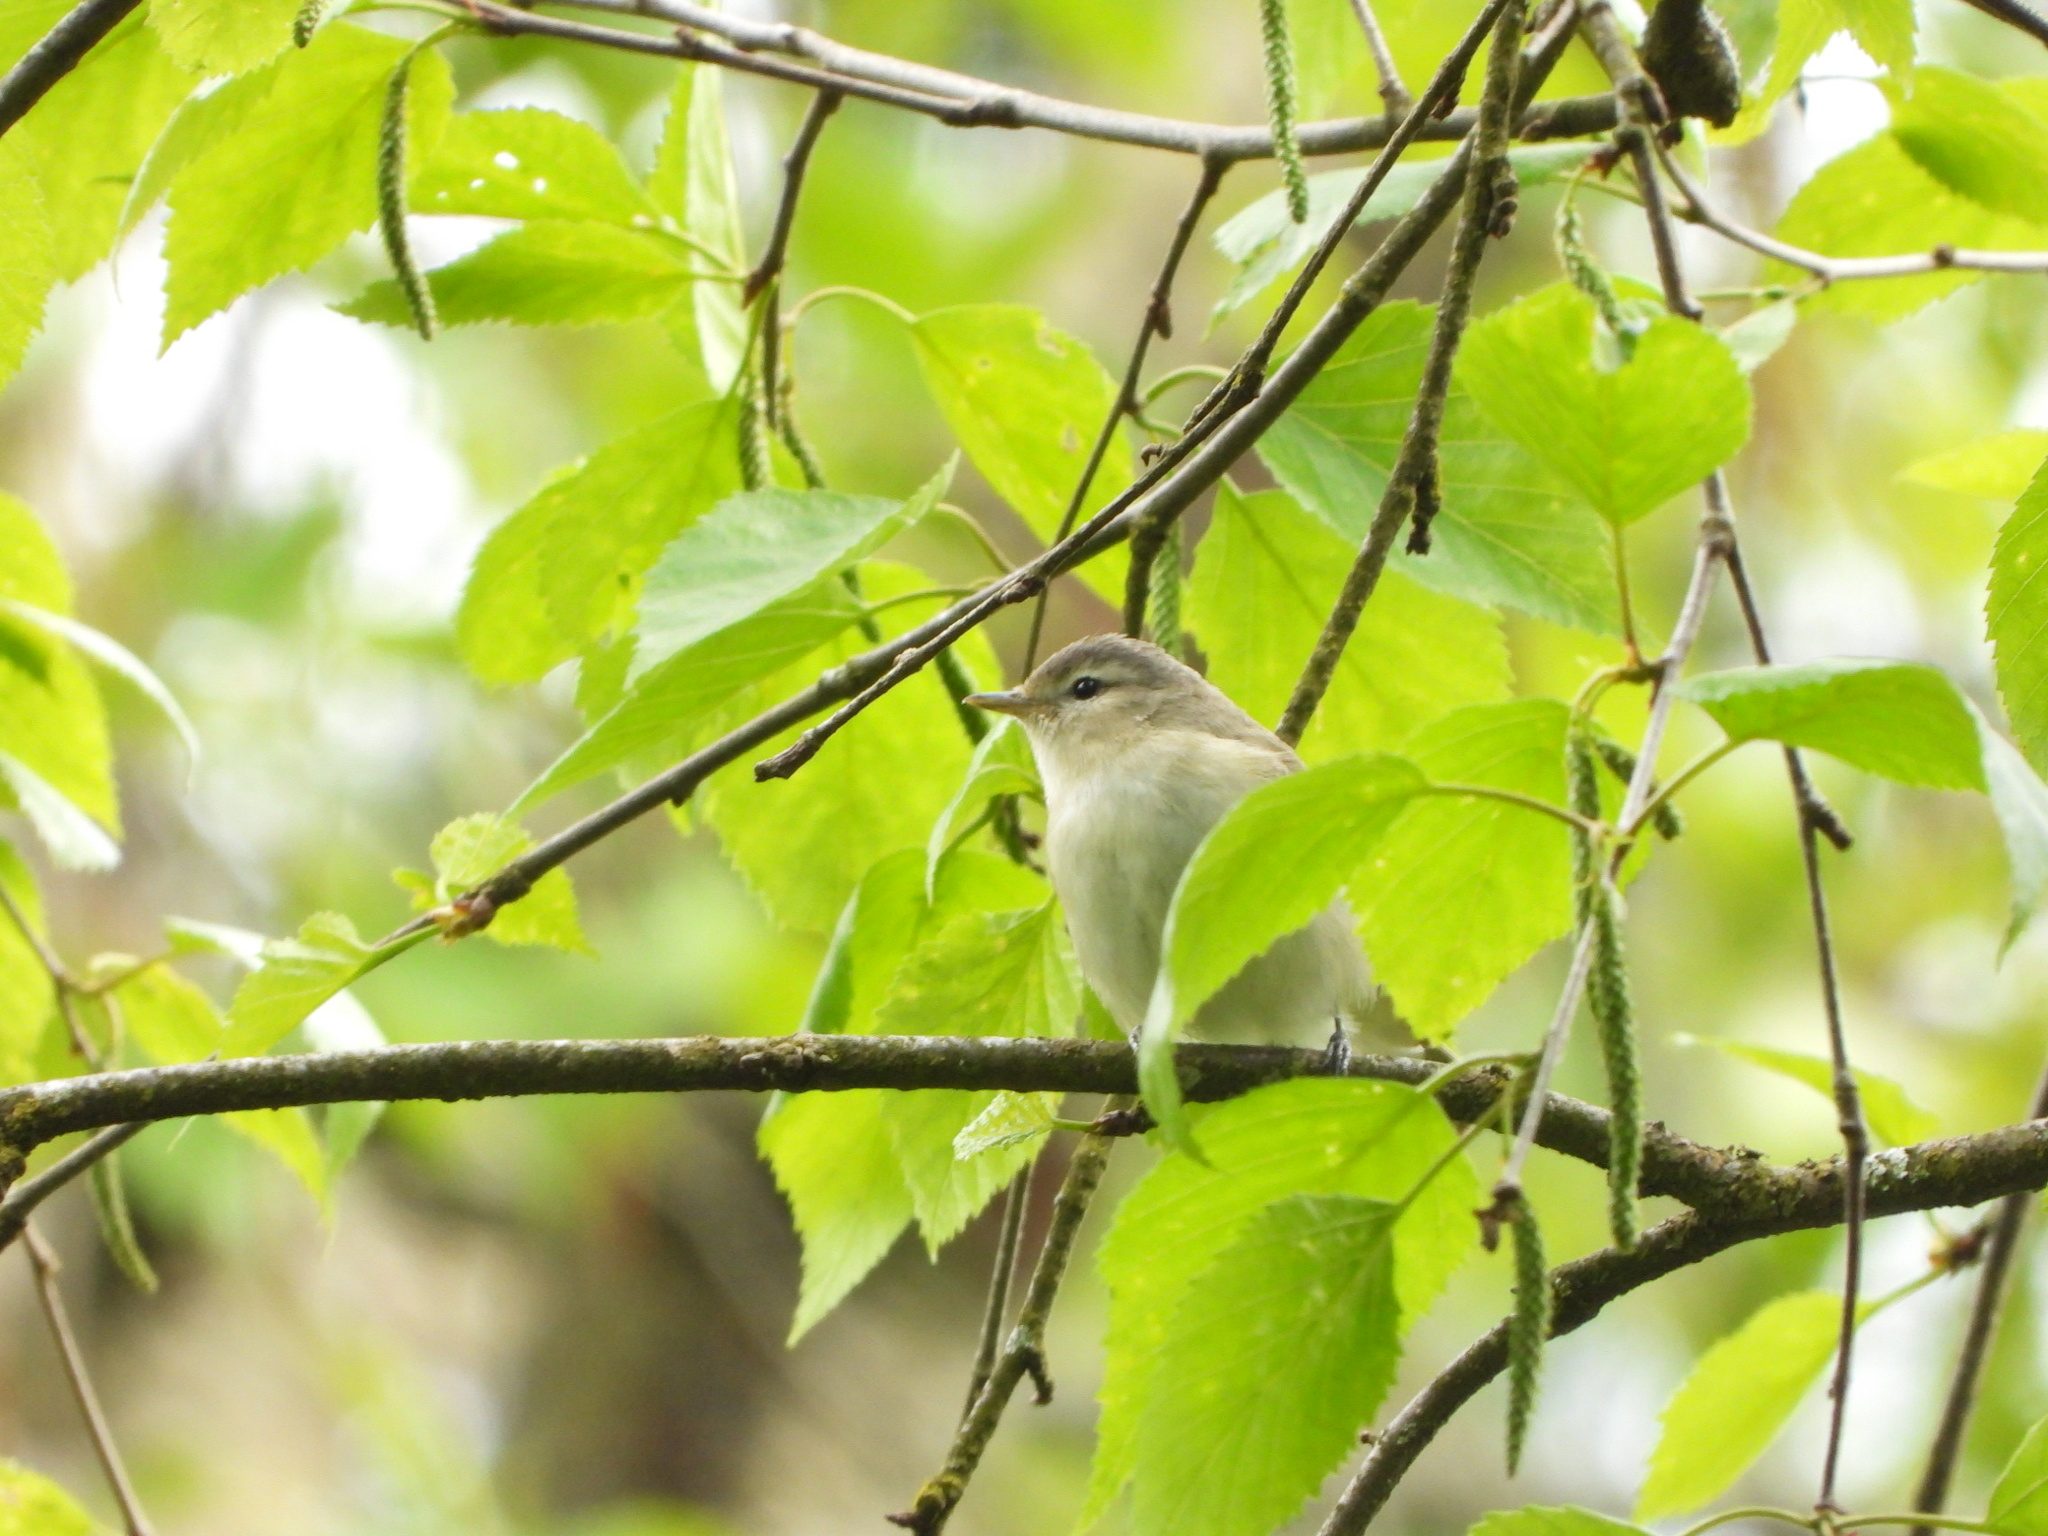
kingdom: Animalia
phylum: Chordata
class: Aves
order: Passeriformes
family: Vireonidae
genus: Vireo
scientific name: Vireo gilvus
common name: Warbling vireo
